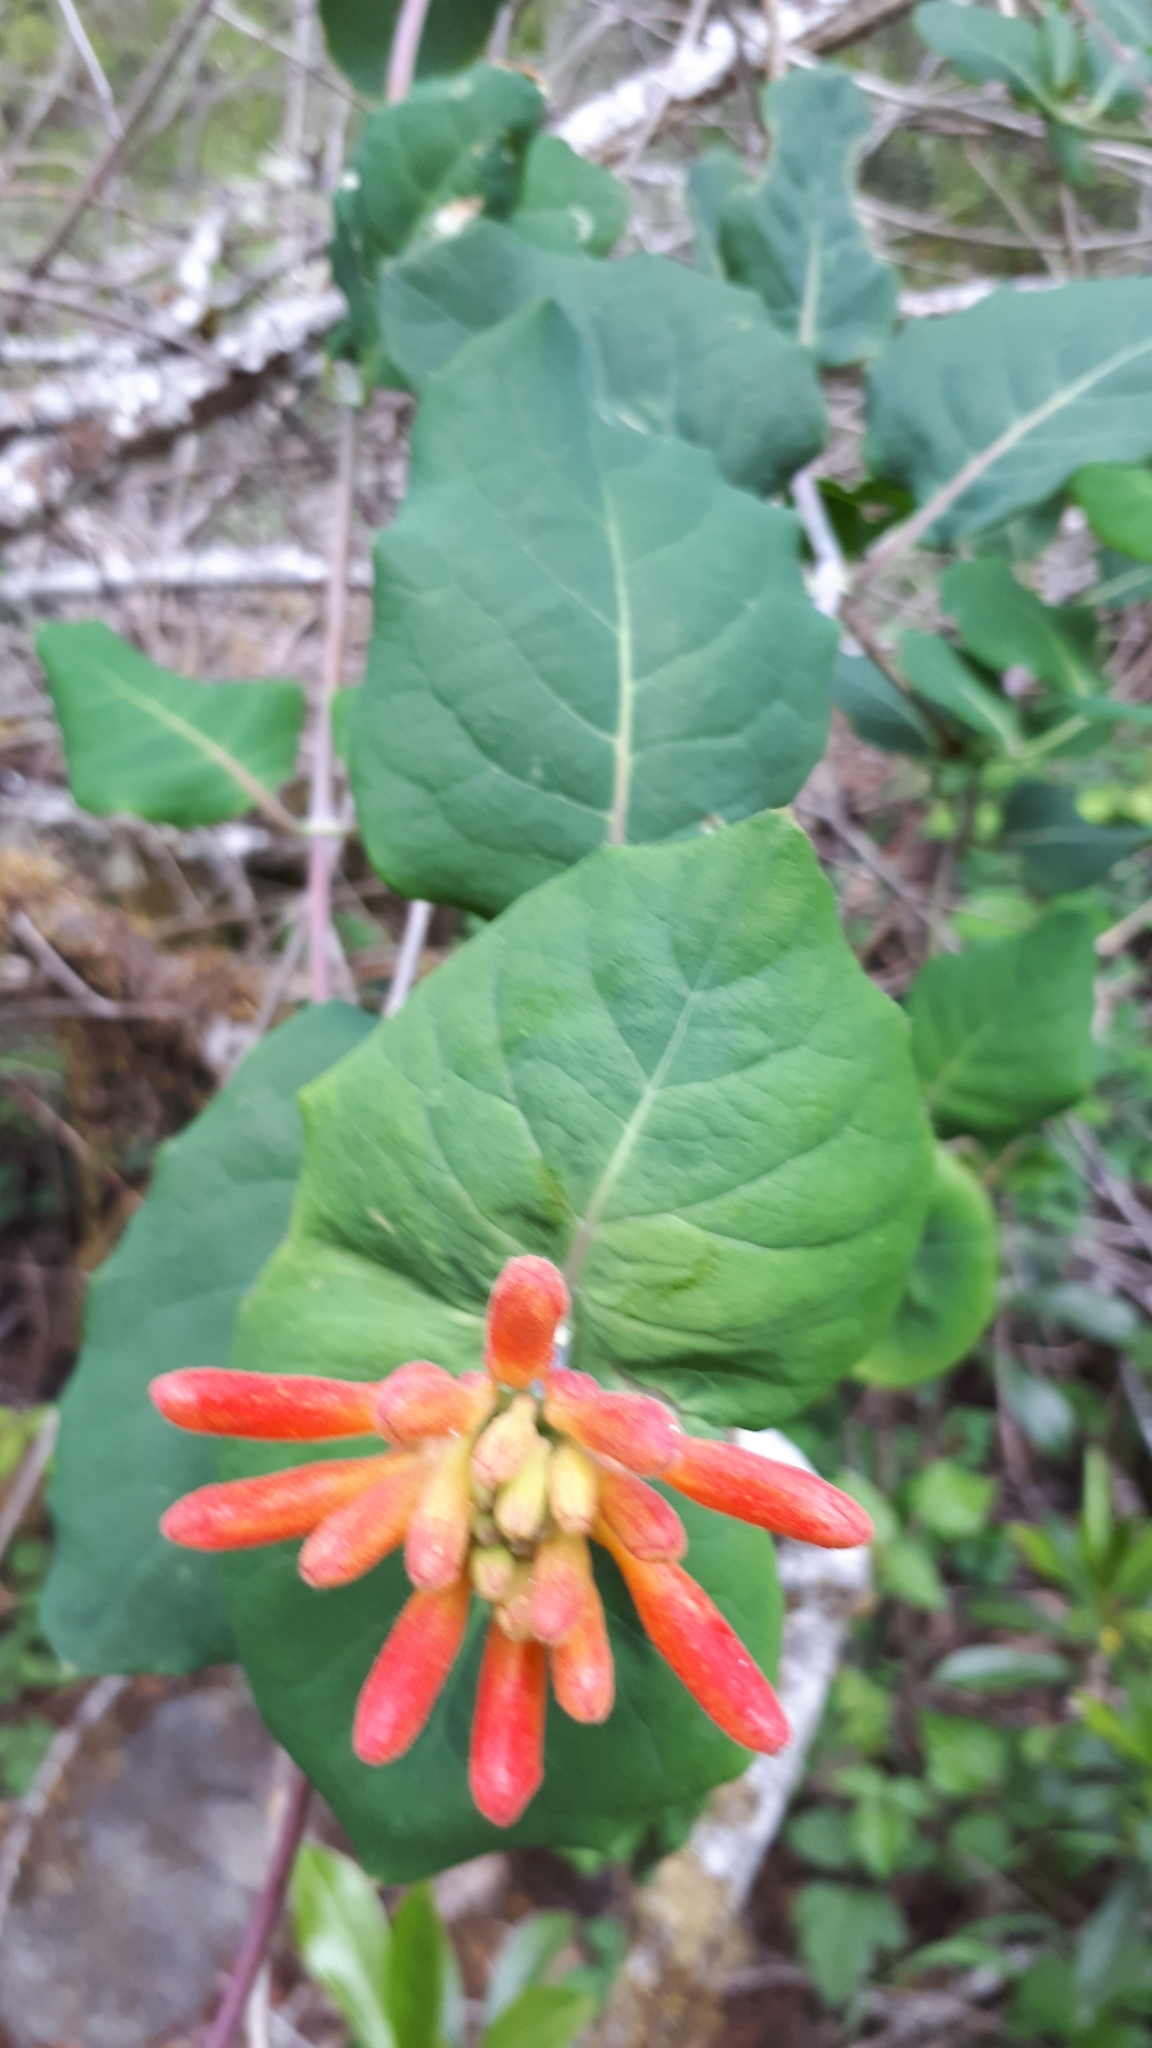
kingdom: Plantae
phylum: Tracheophyta
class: Magnoliopsida
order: Dipsacales
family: Caprifoliaceae
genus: Lonicera
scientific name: Lonicera ciliosa
